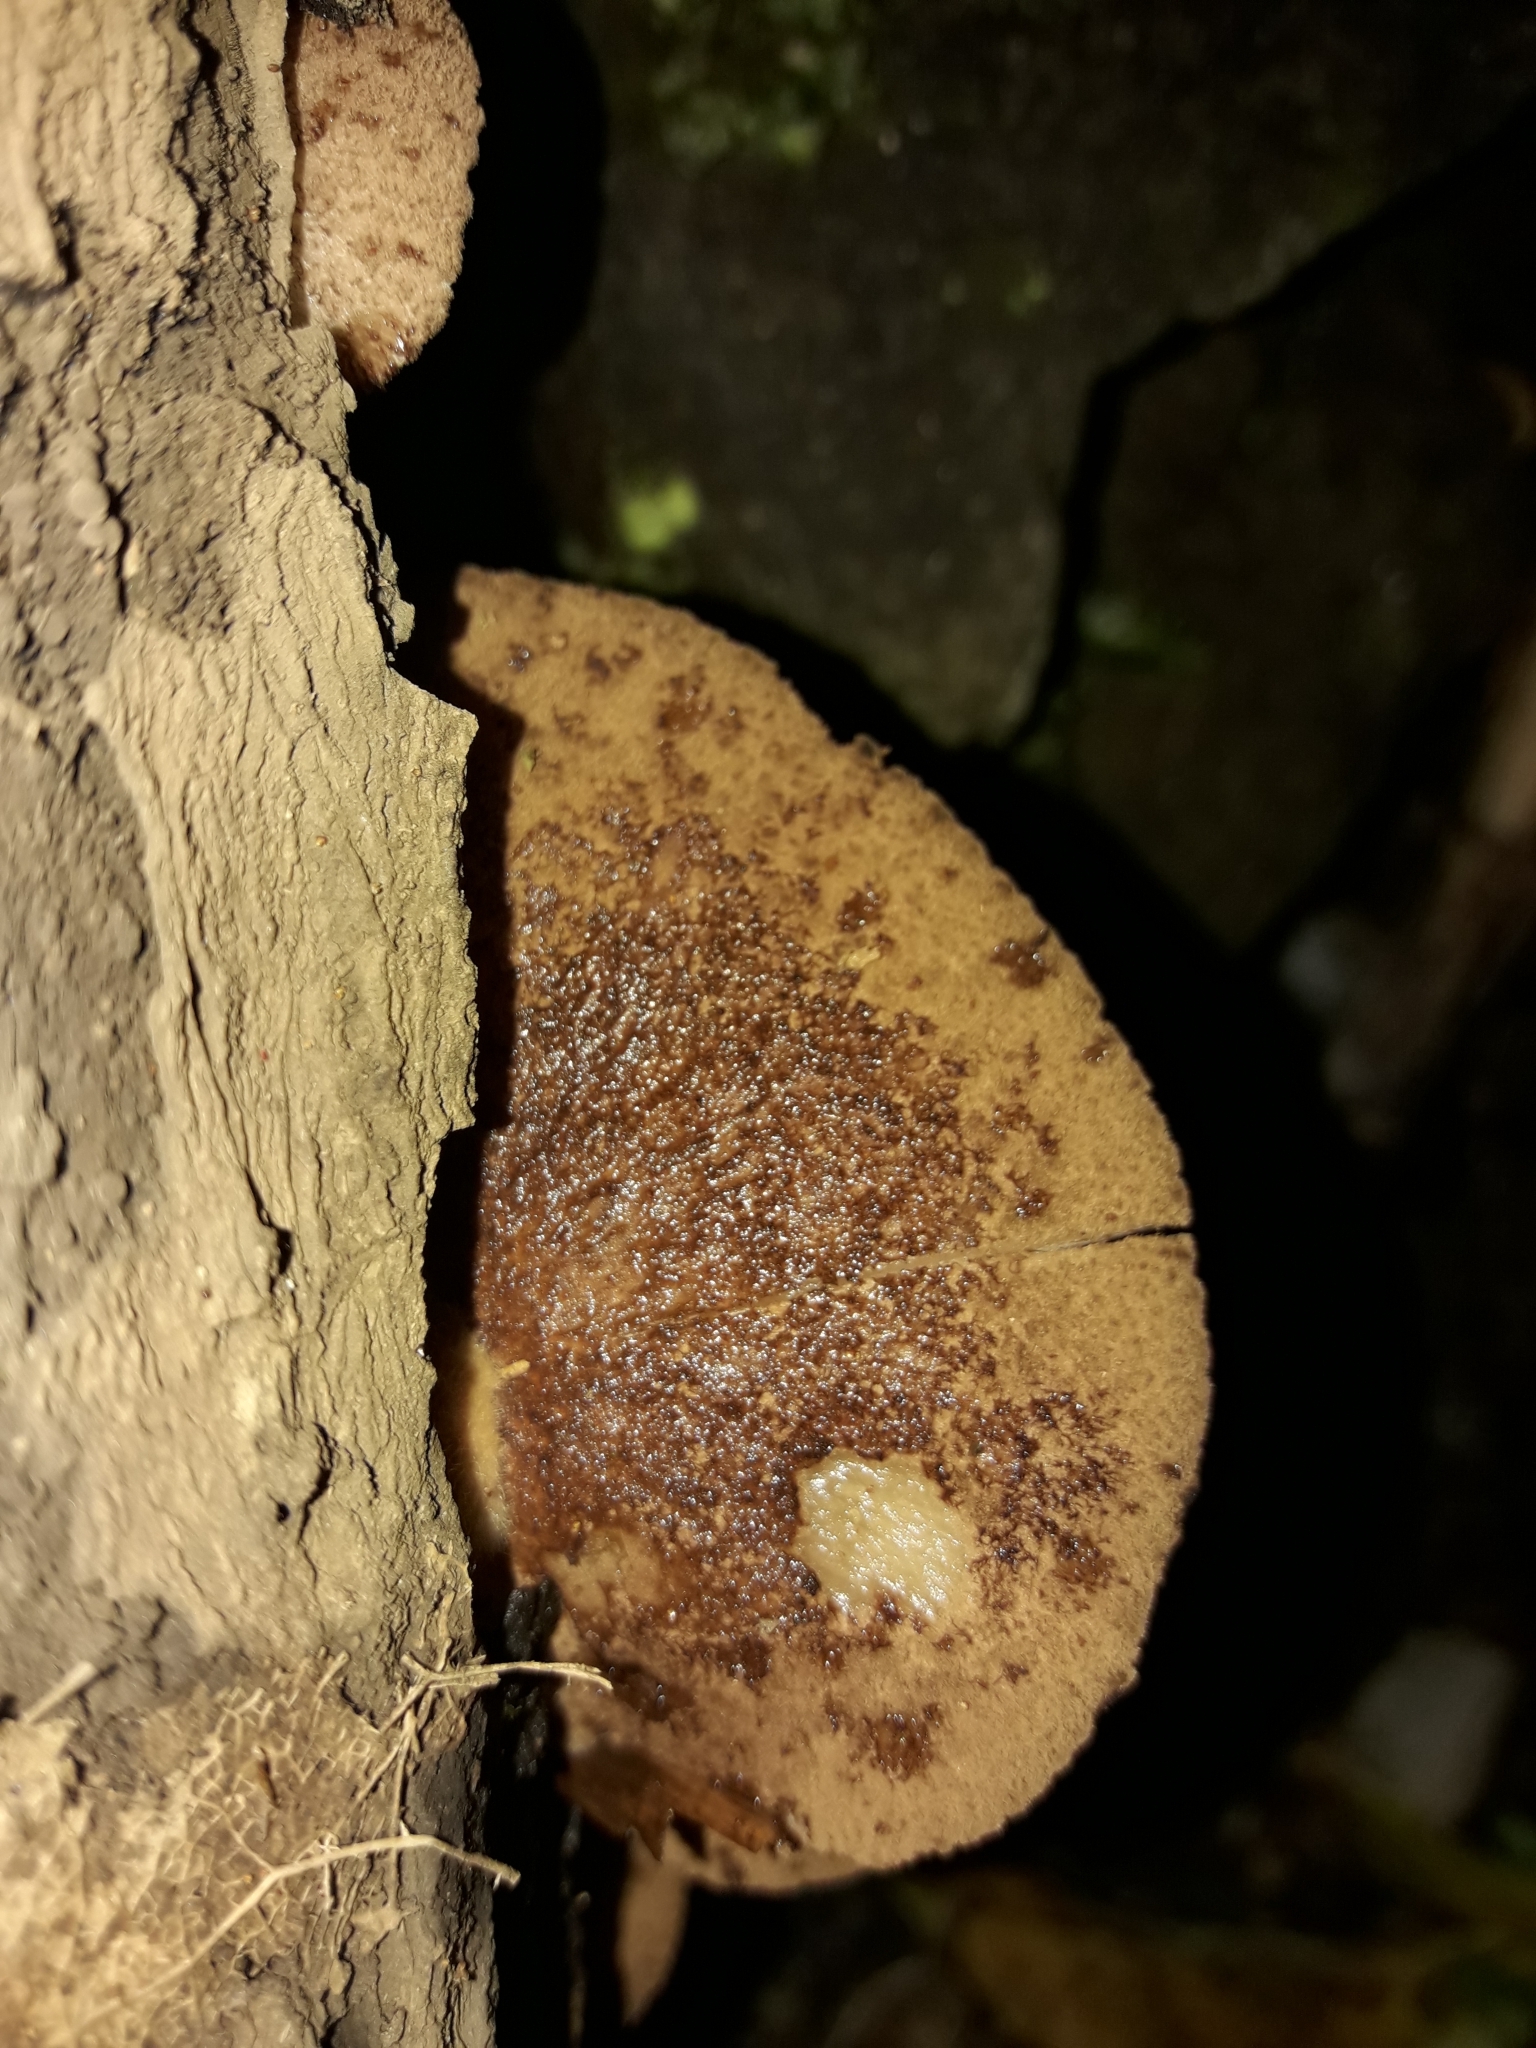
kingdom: Fungi
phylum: Basidiomycota
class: Agaricomycetes
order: Agaricales
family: Crepidotaceae
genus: Crepidotus
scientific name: Crepidotus fuscovelutinus
